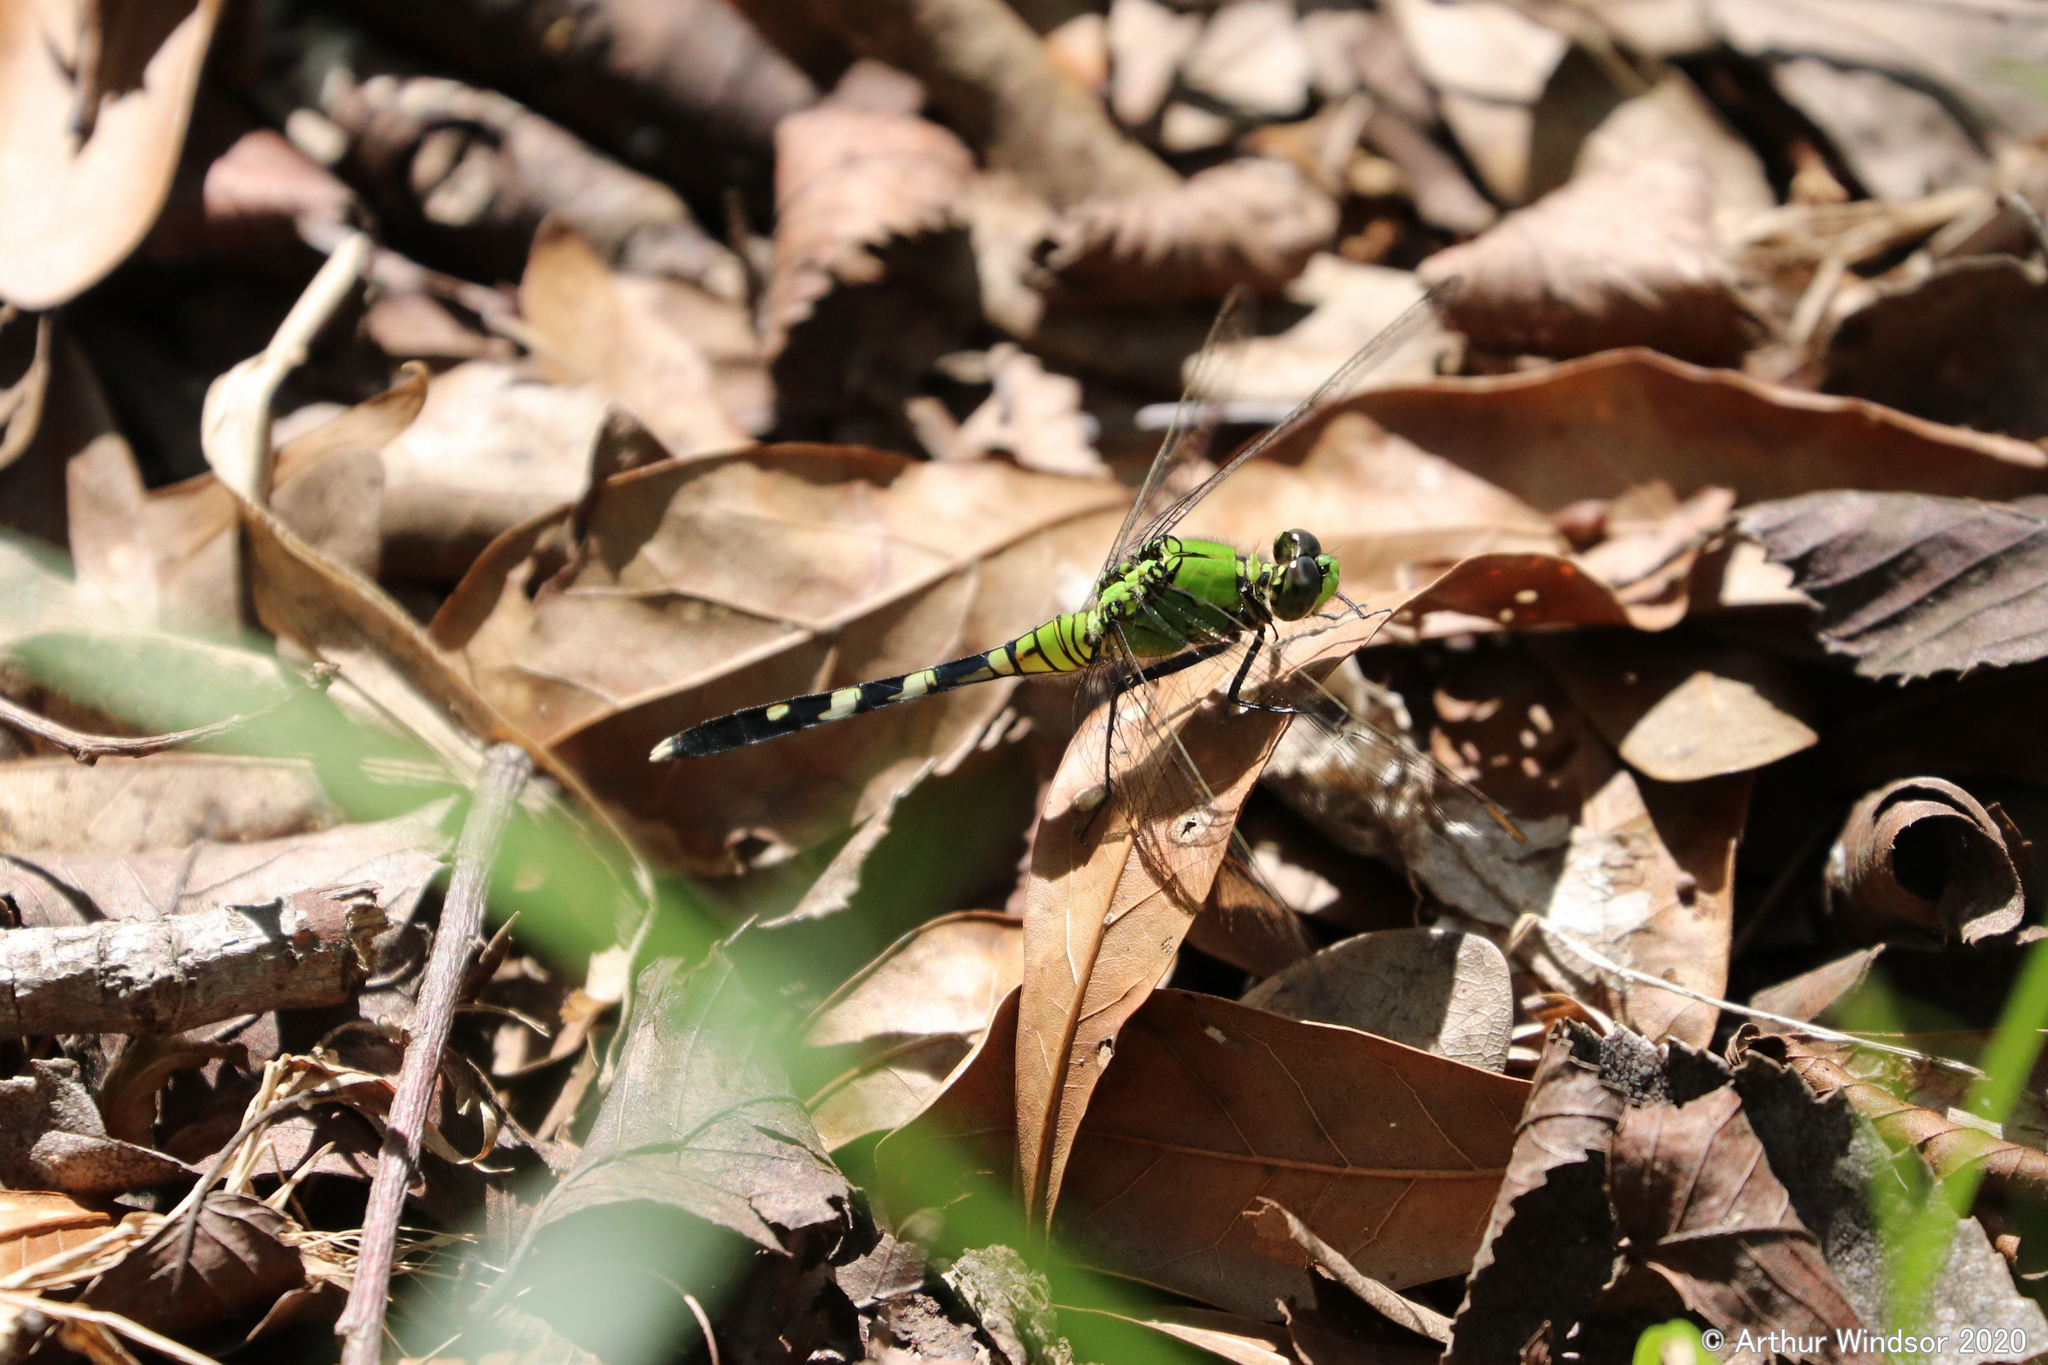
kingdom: Animalia
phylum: Arthropoda
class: Insecta
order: Odonata
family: Libellulidae
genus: Erythemis
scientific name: Erythemis simplicicollis
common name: Eastern pondhawk
